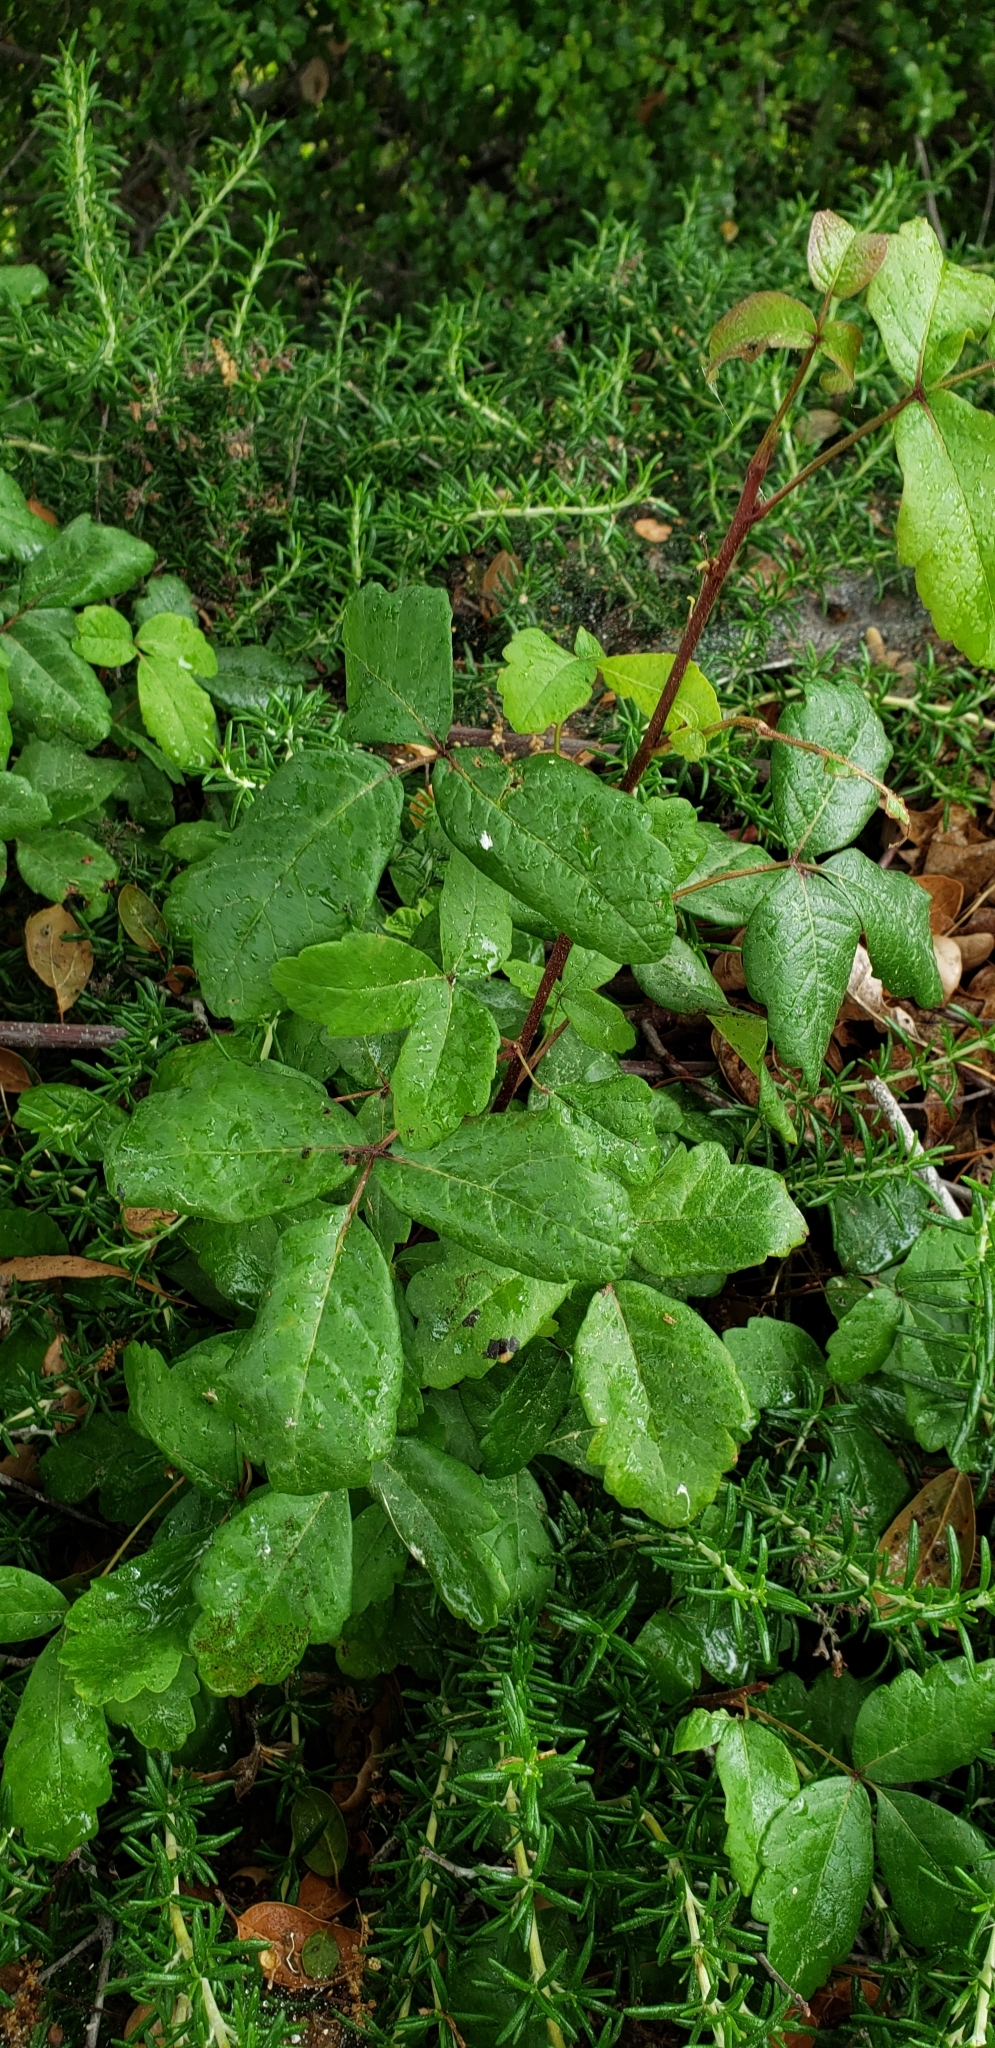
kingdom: Plantae
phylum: Tracheophyta
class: Magnoliopsida
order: Sapindales
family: Anacardiaceae
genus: Toxicodendron
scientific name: Toxicodendron diversilobum
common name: Pacific poison-oak
